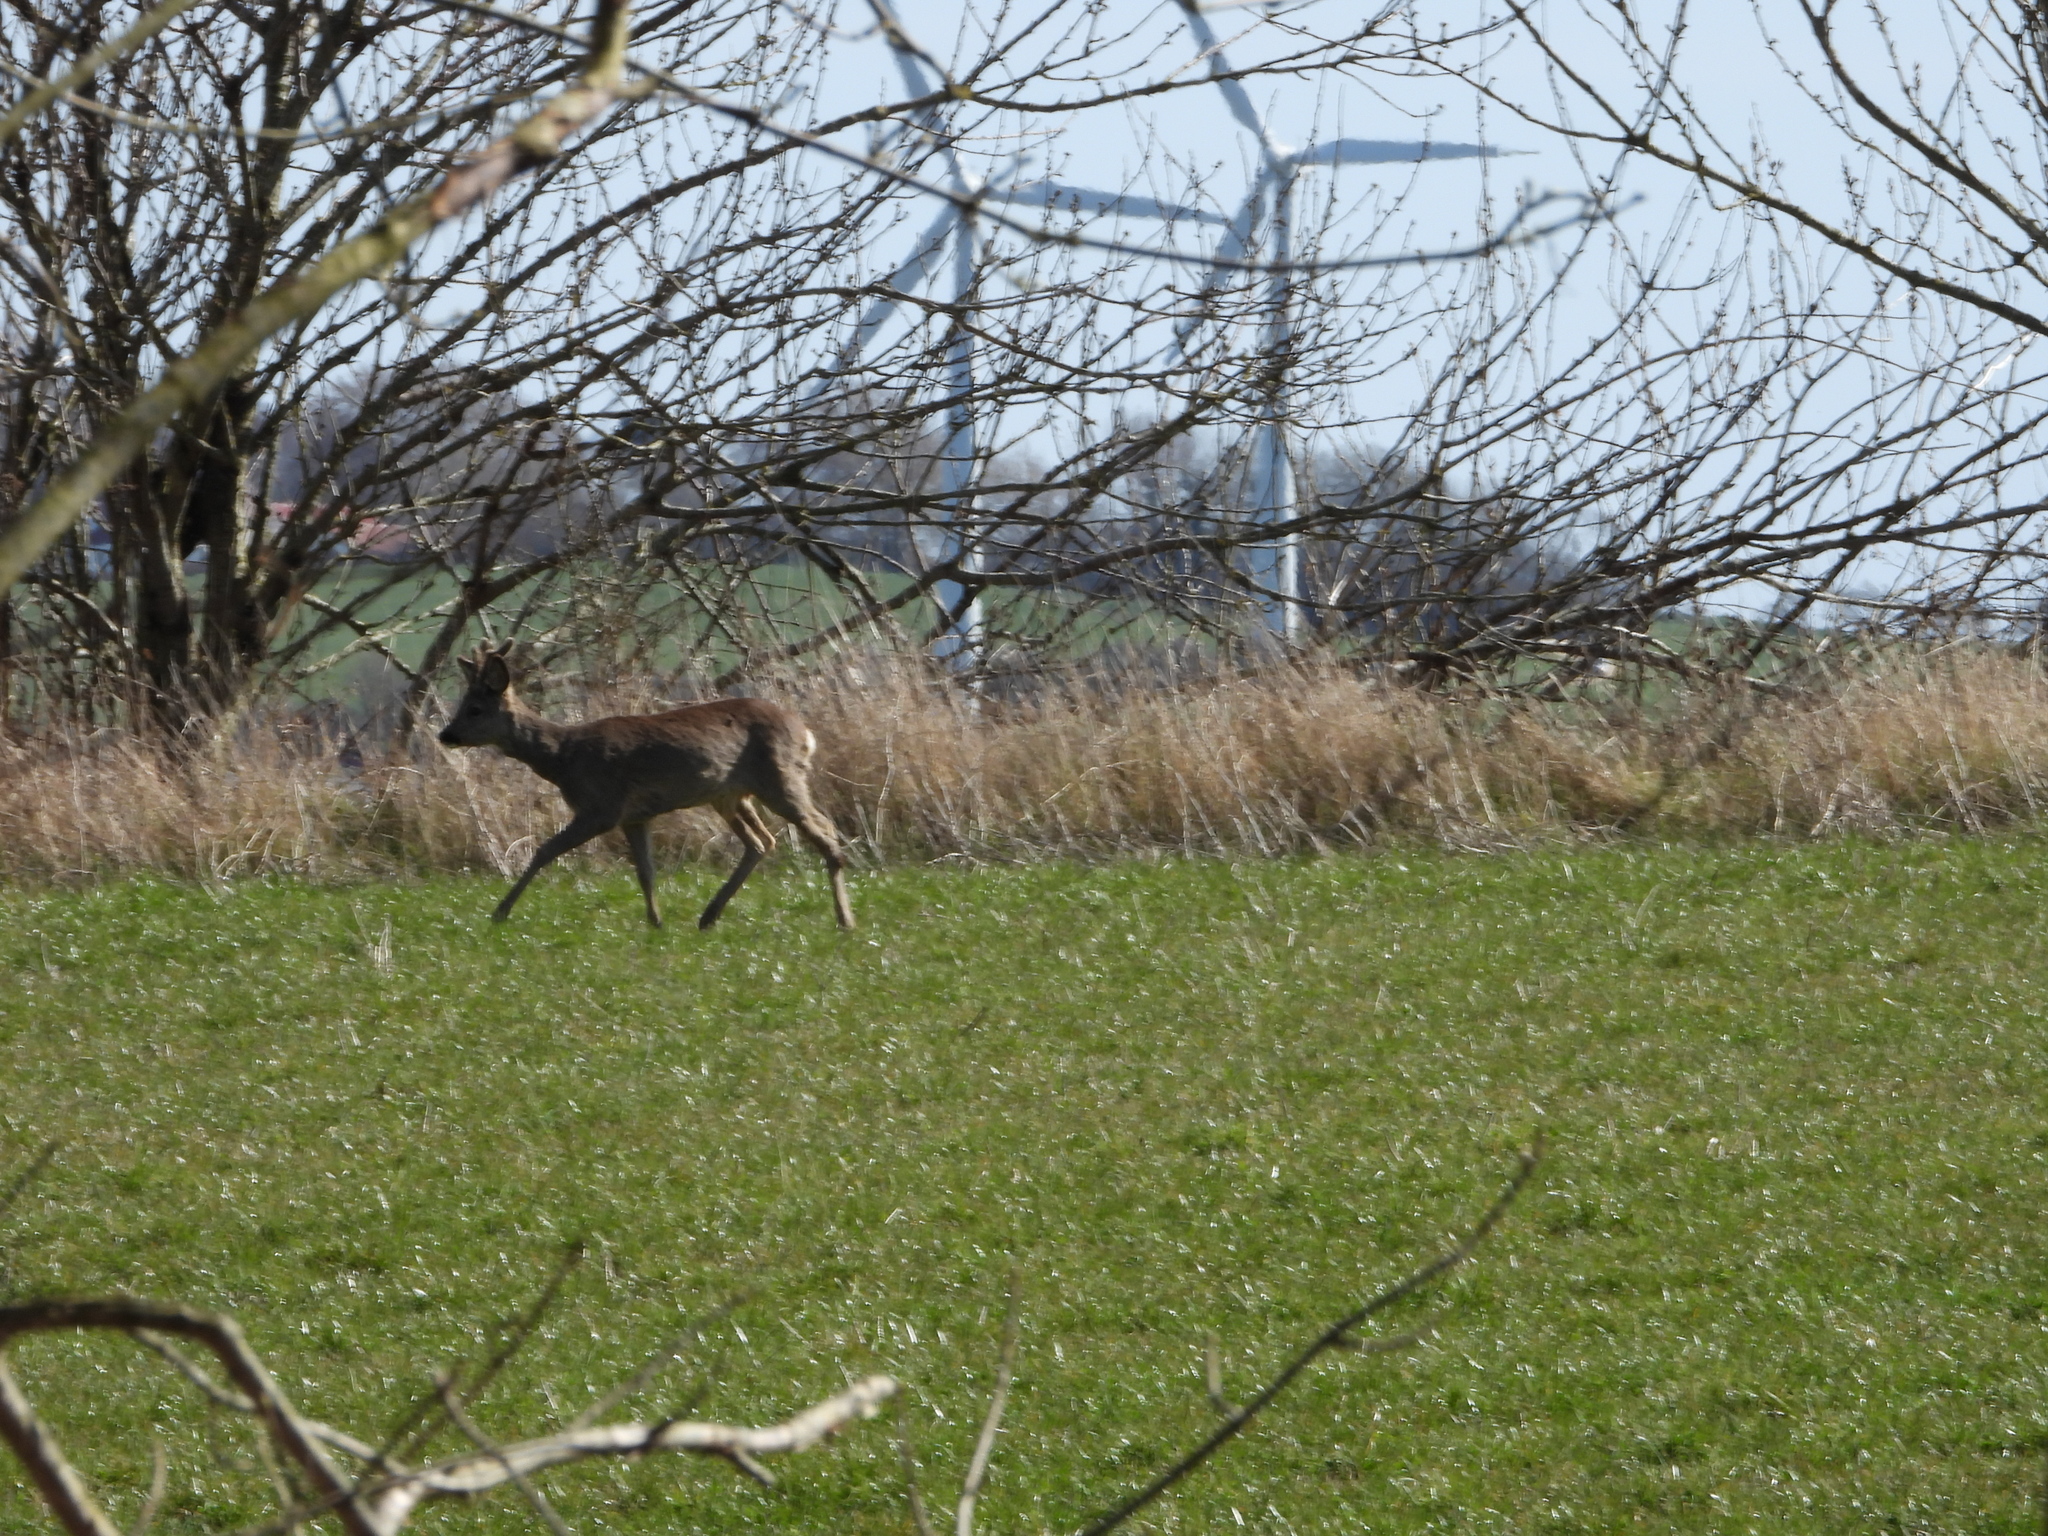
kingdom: Animalia
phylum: Chordata
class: Mammalia
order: Artiodactyla
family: Cervidae
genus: Capreolus
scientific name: Capreolus capreolus
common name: Western roe deer
